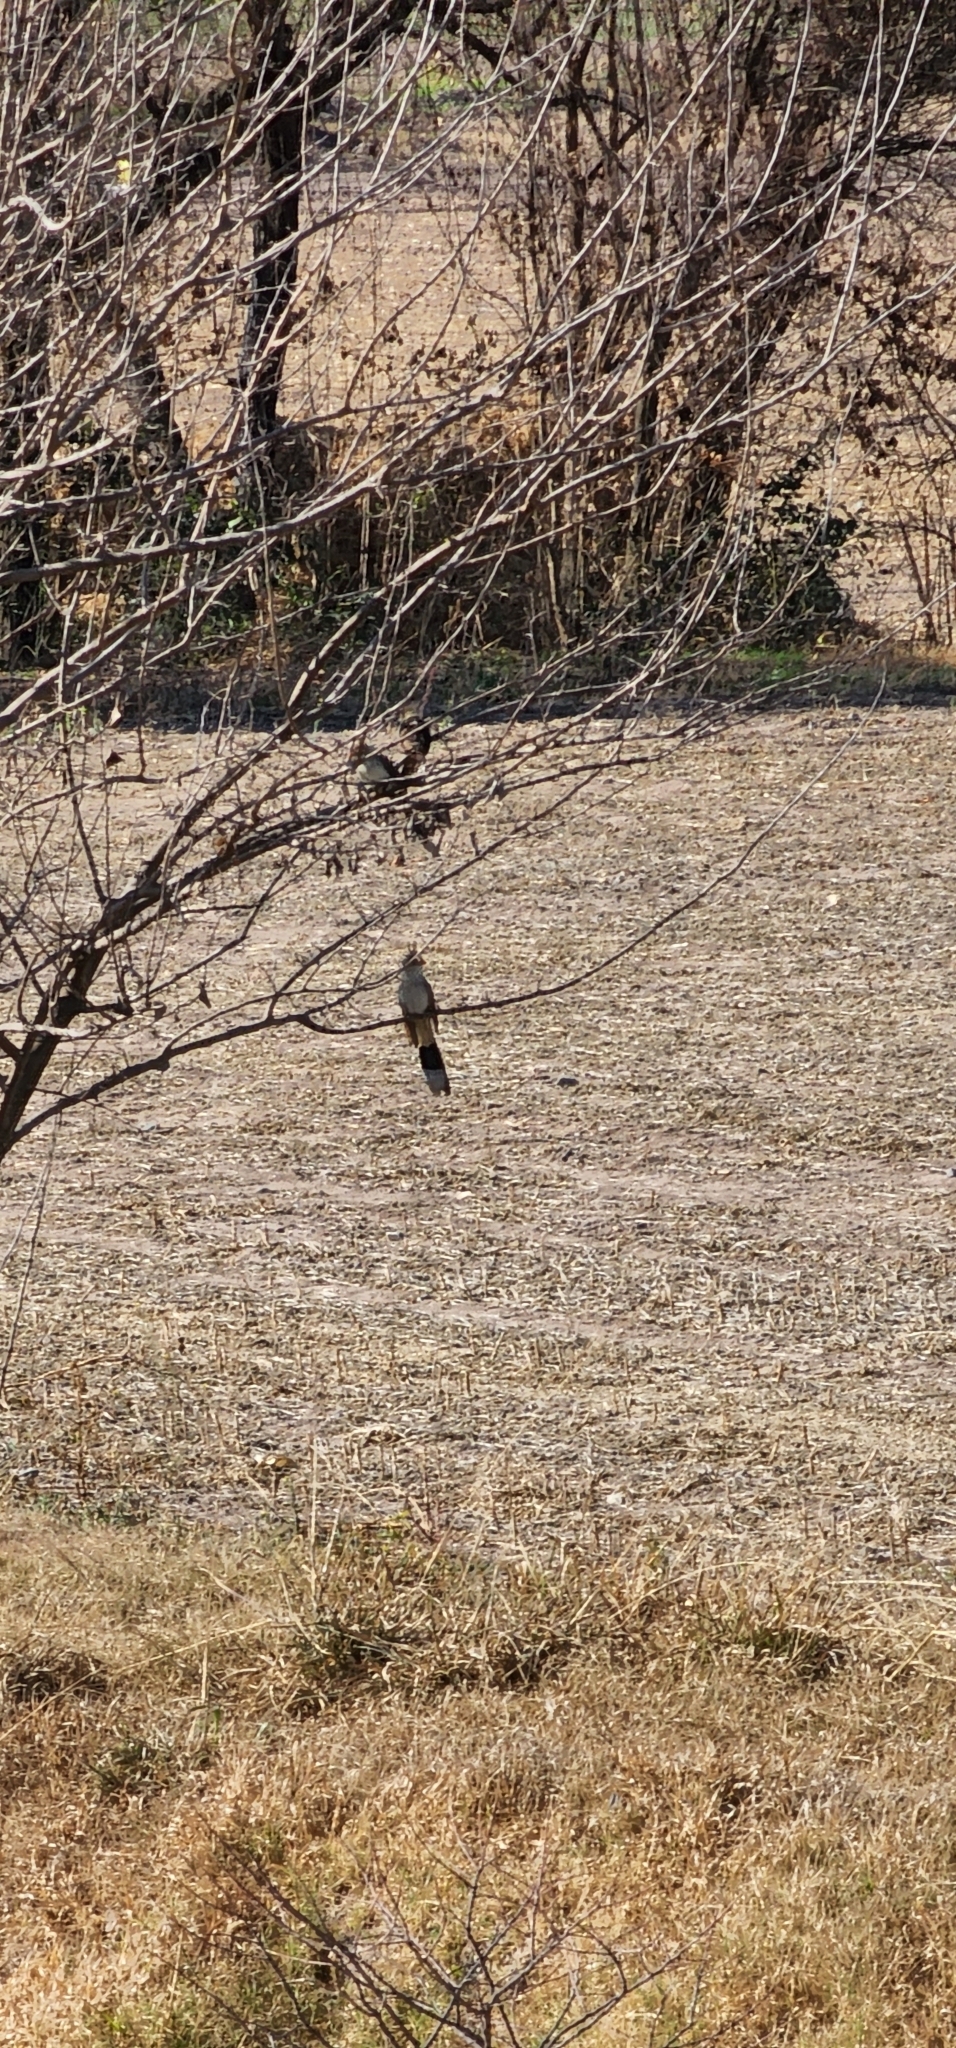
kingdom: Animalia
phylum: Chordata
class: Aves
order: Cuculiformes
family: Cuculidae
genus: Guira
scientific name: Guira guira
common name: Guira cuckoo
